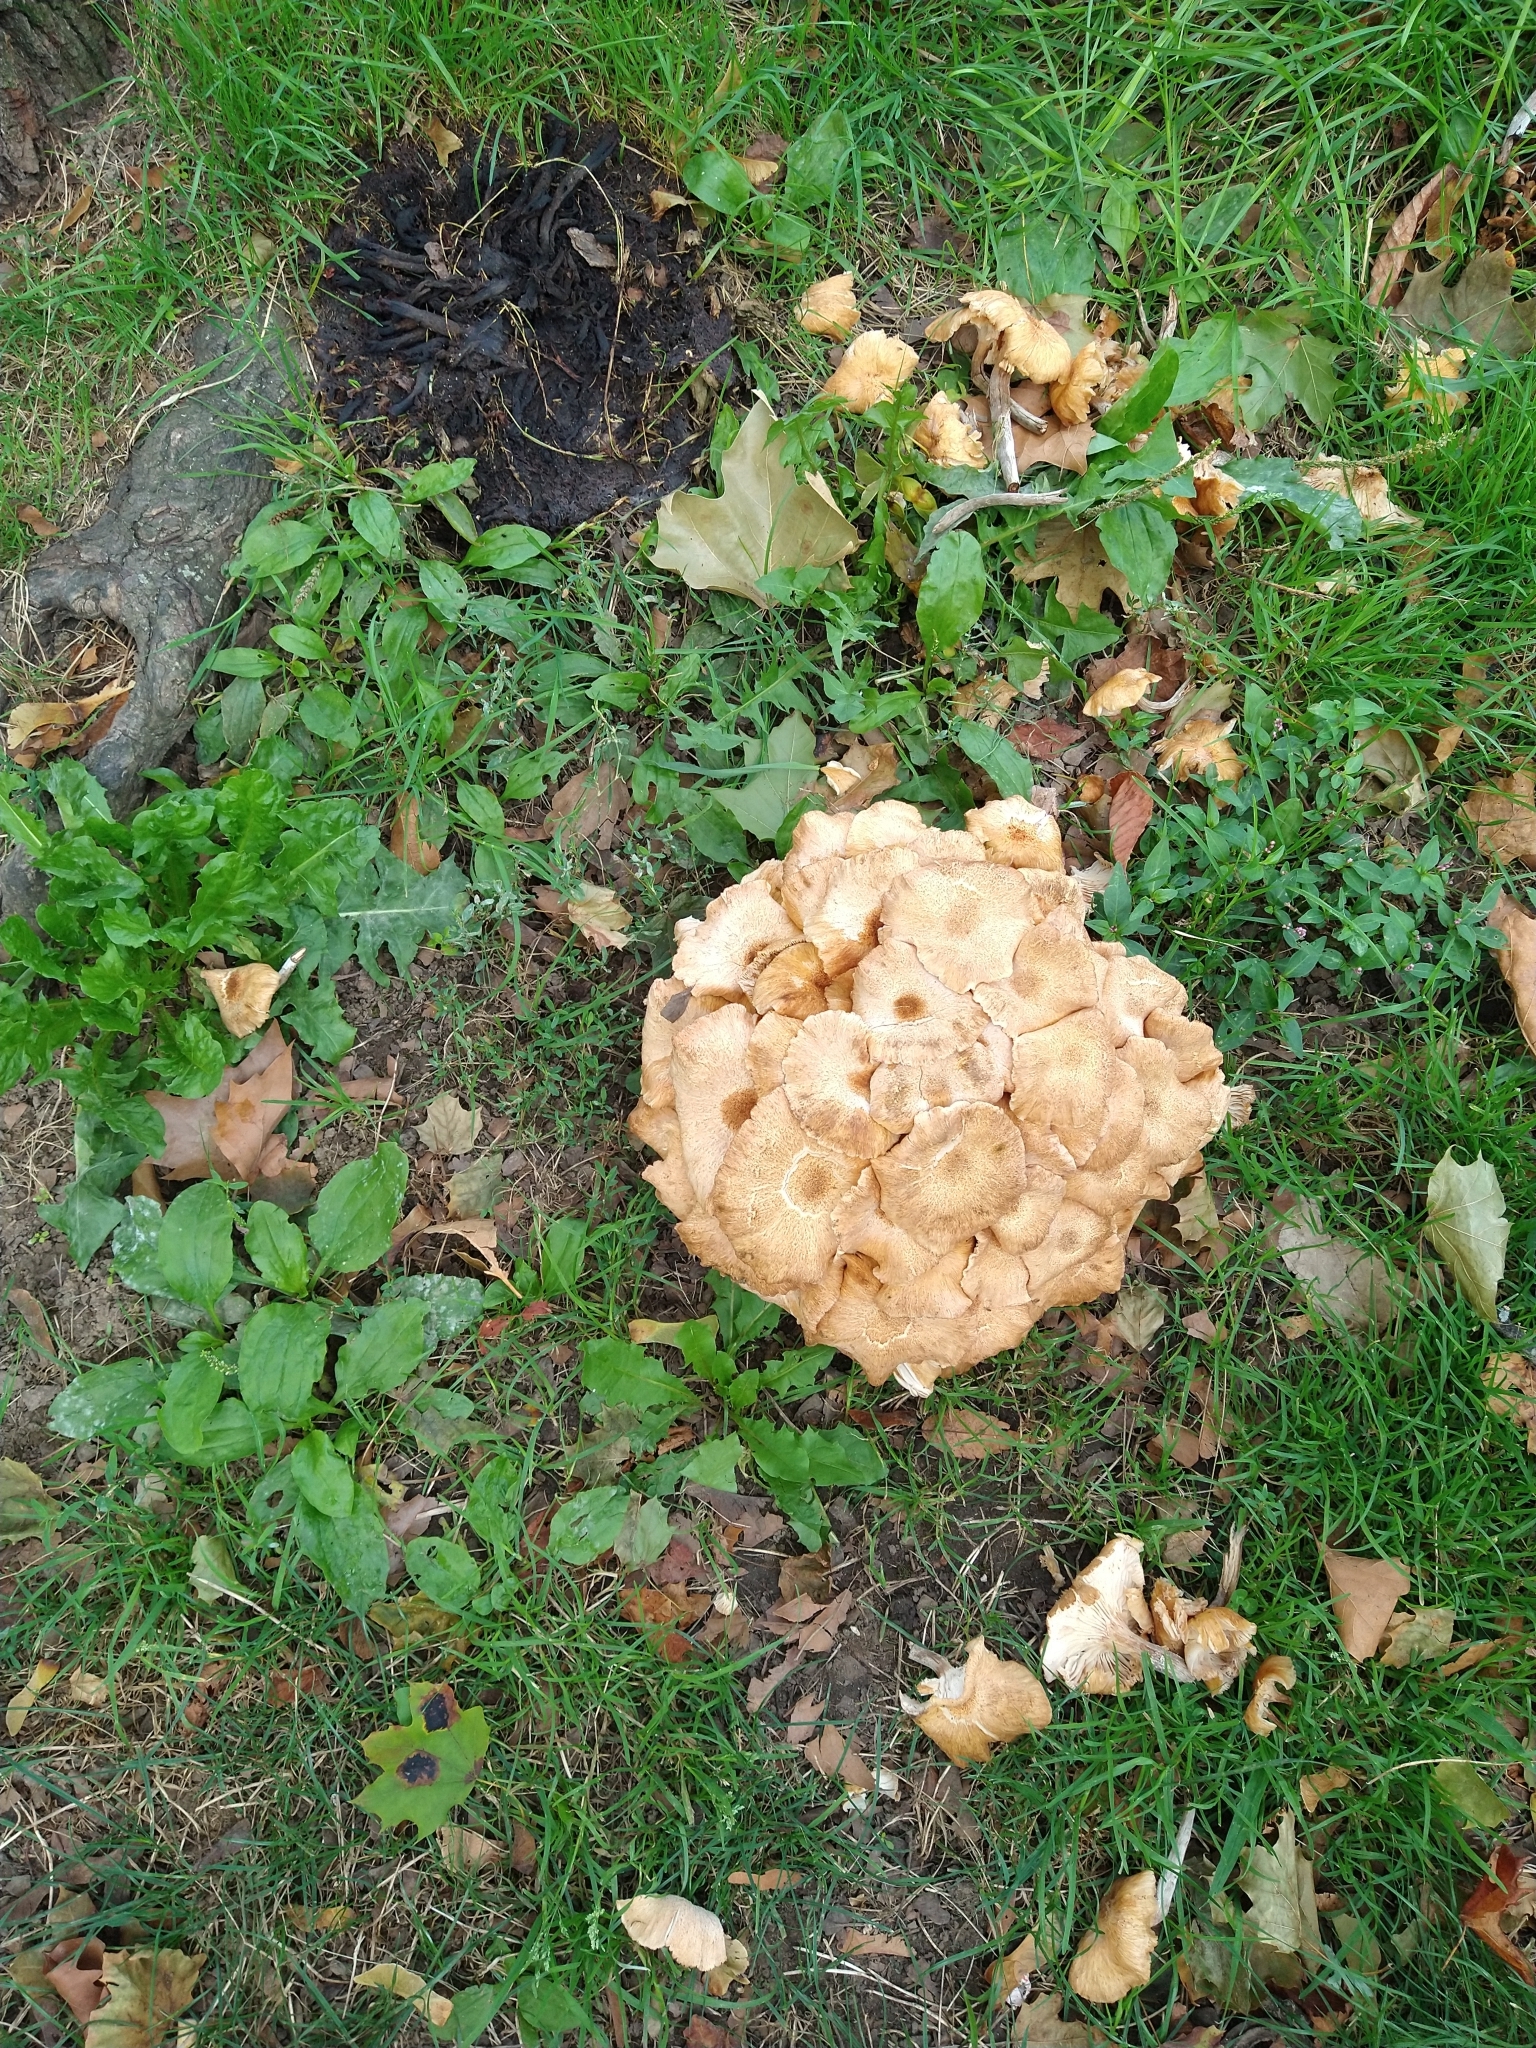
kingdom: Fungi
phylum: Basidiomycota
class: Agaricomycetes
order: Agaricales
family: Physalacriaceae
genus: Desarmillaria
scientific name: Desarmillaria caespitosa
